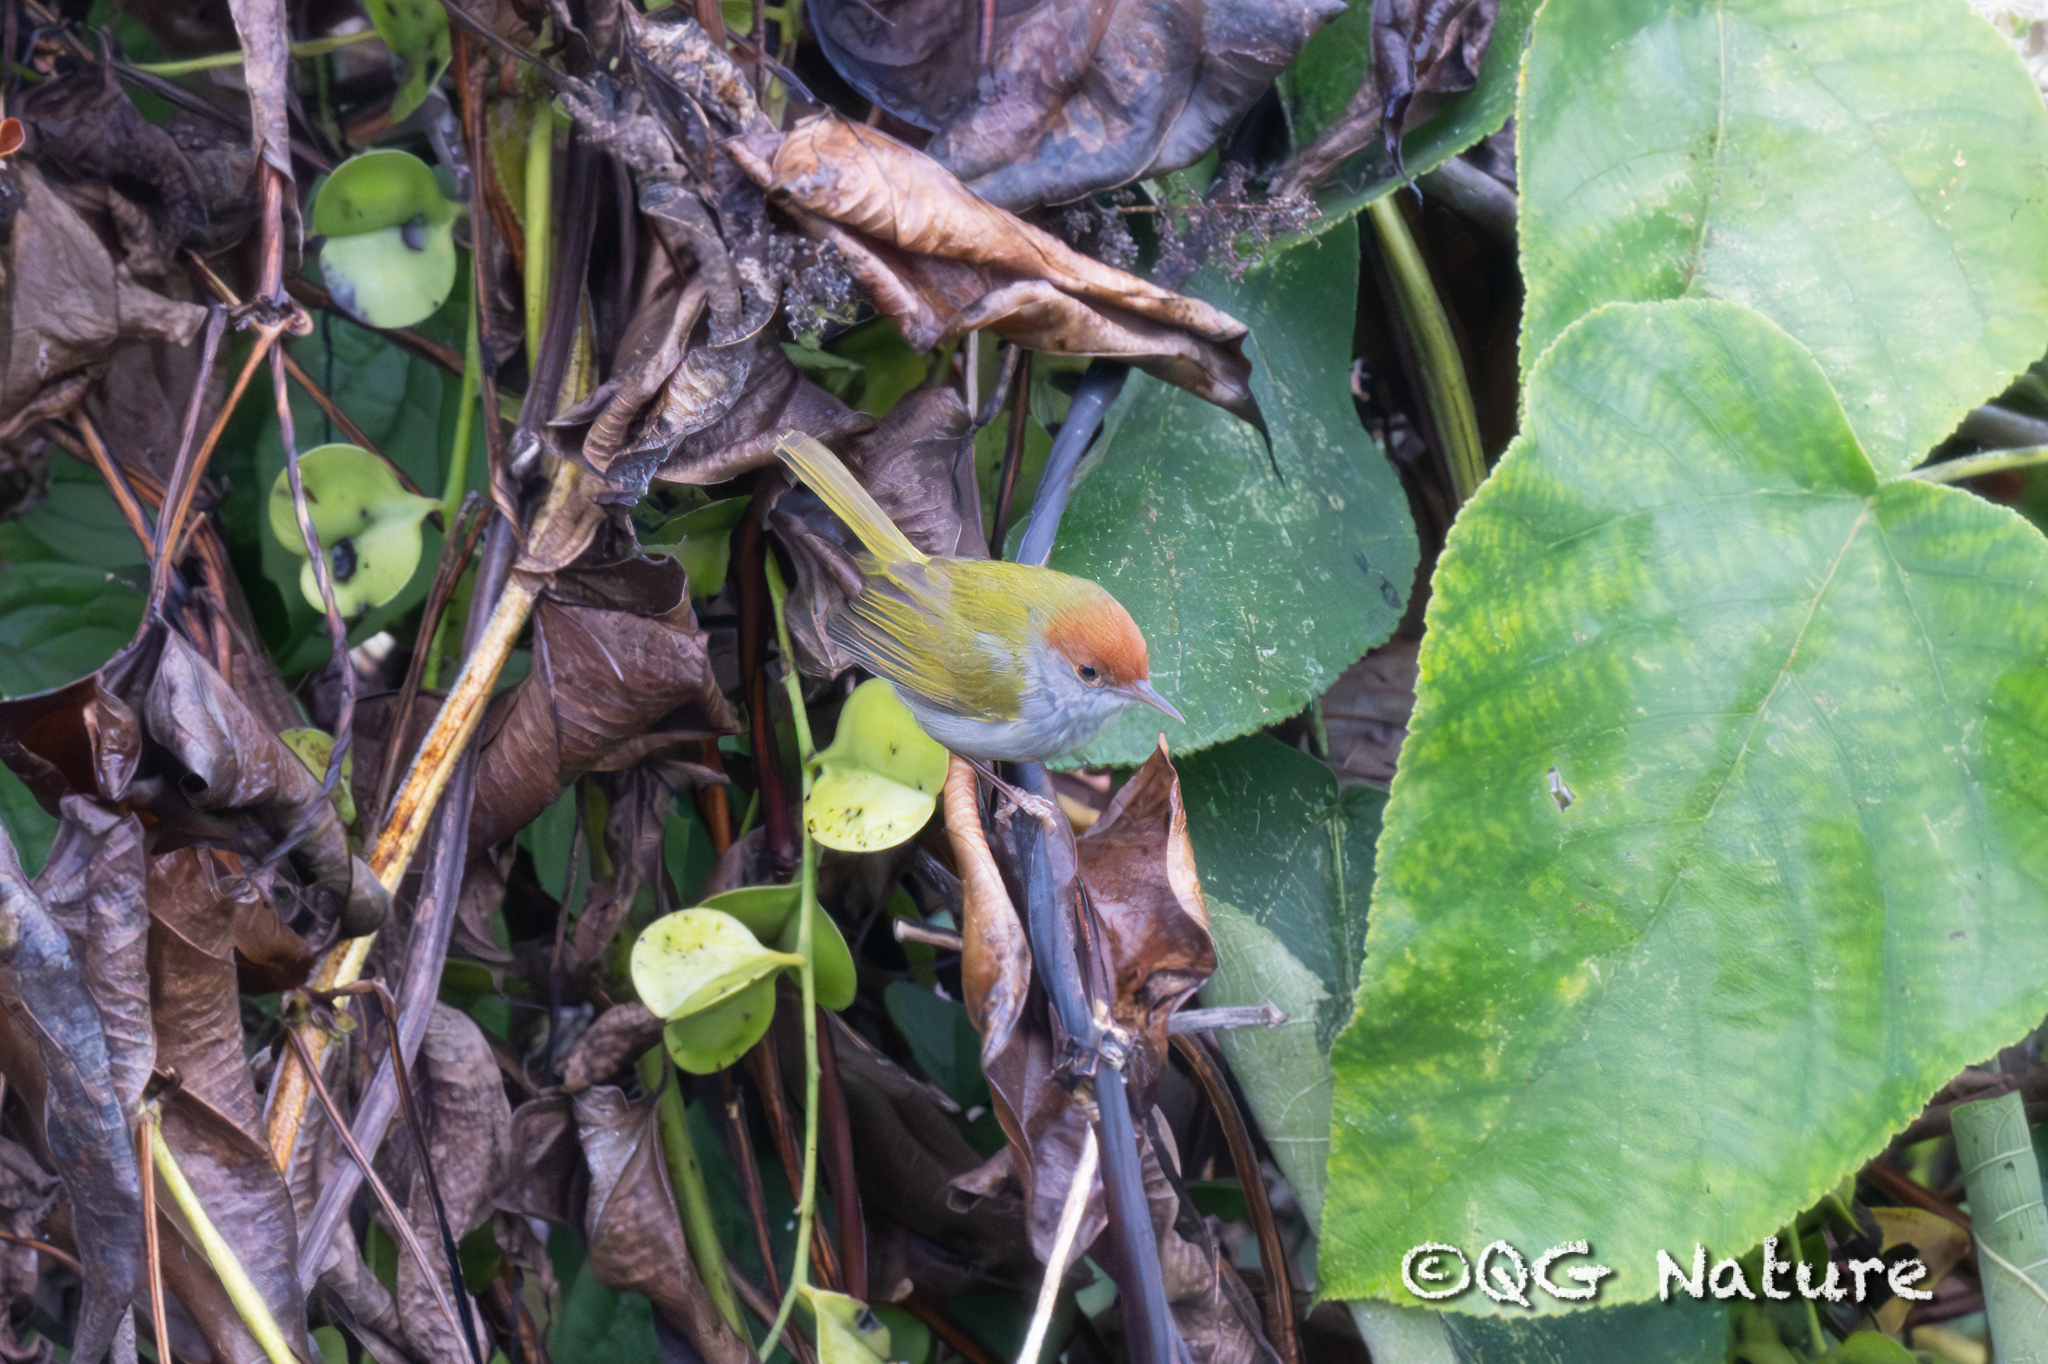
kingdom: Animalia
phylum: Chordata
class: Aves
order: Passeriformes
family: Cisticolidae
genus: Orthotomus
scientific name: Orthotomus atrogularis
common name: Dark-necked tailorbird
